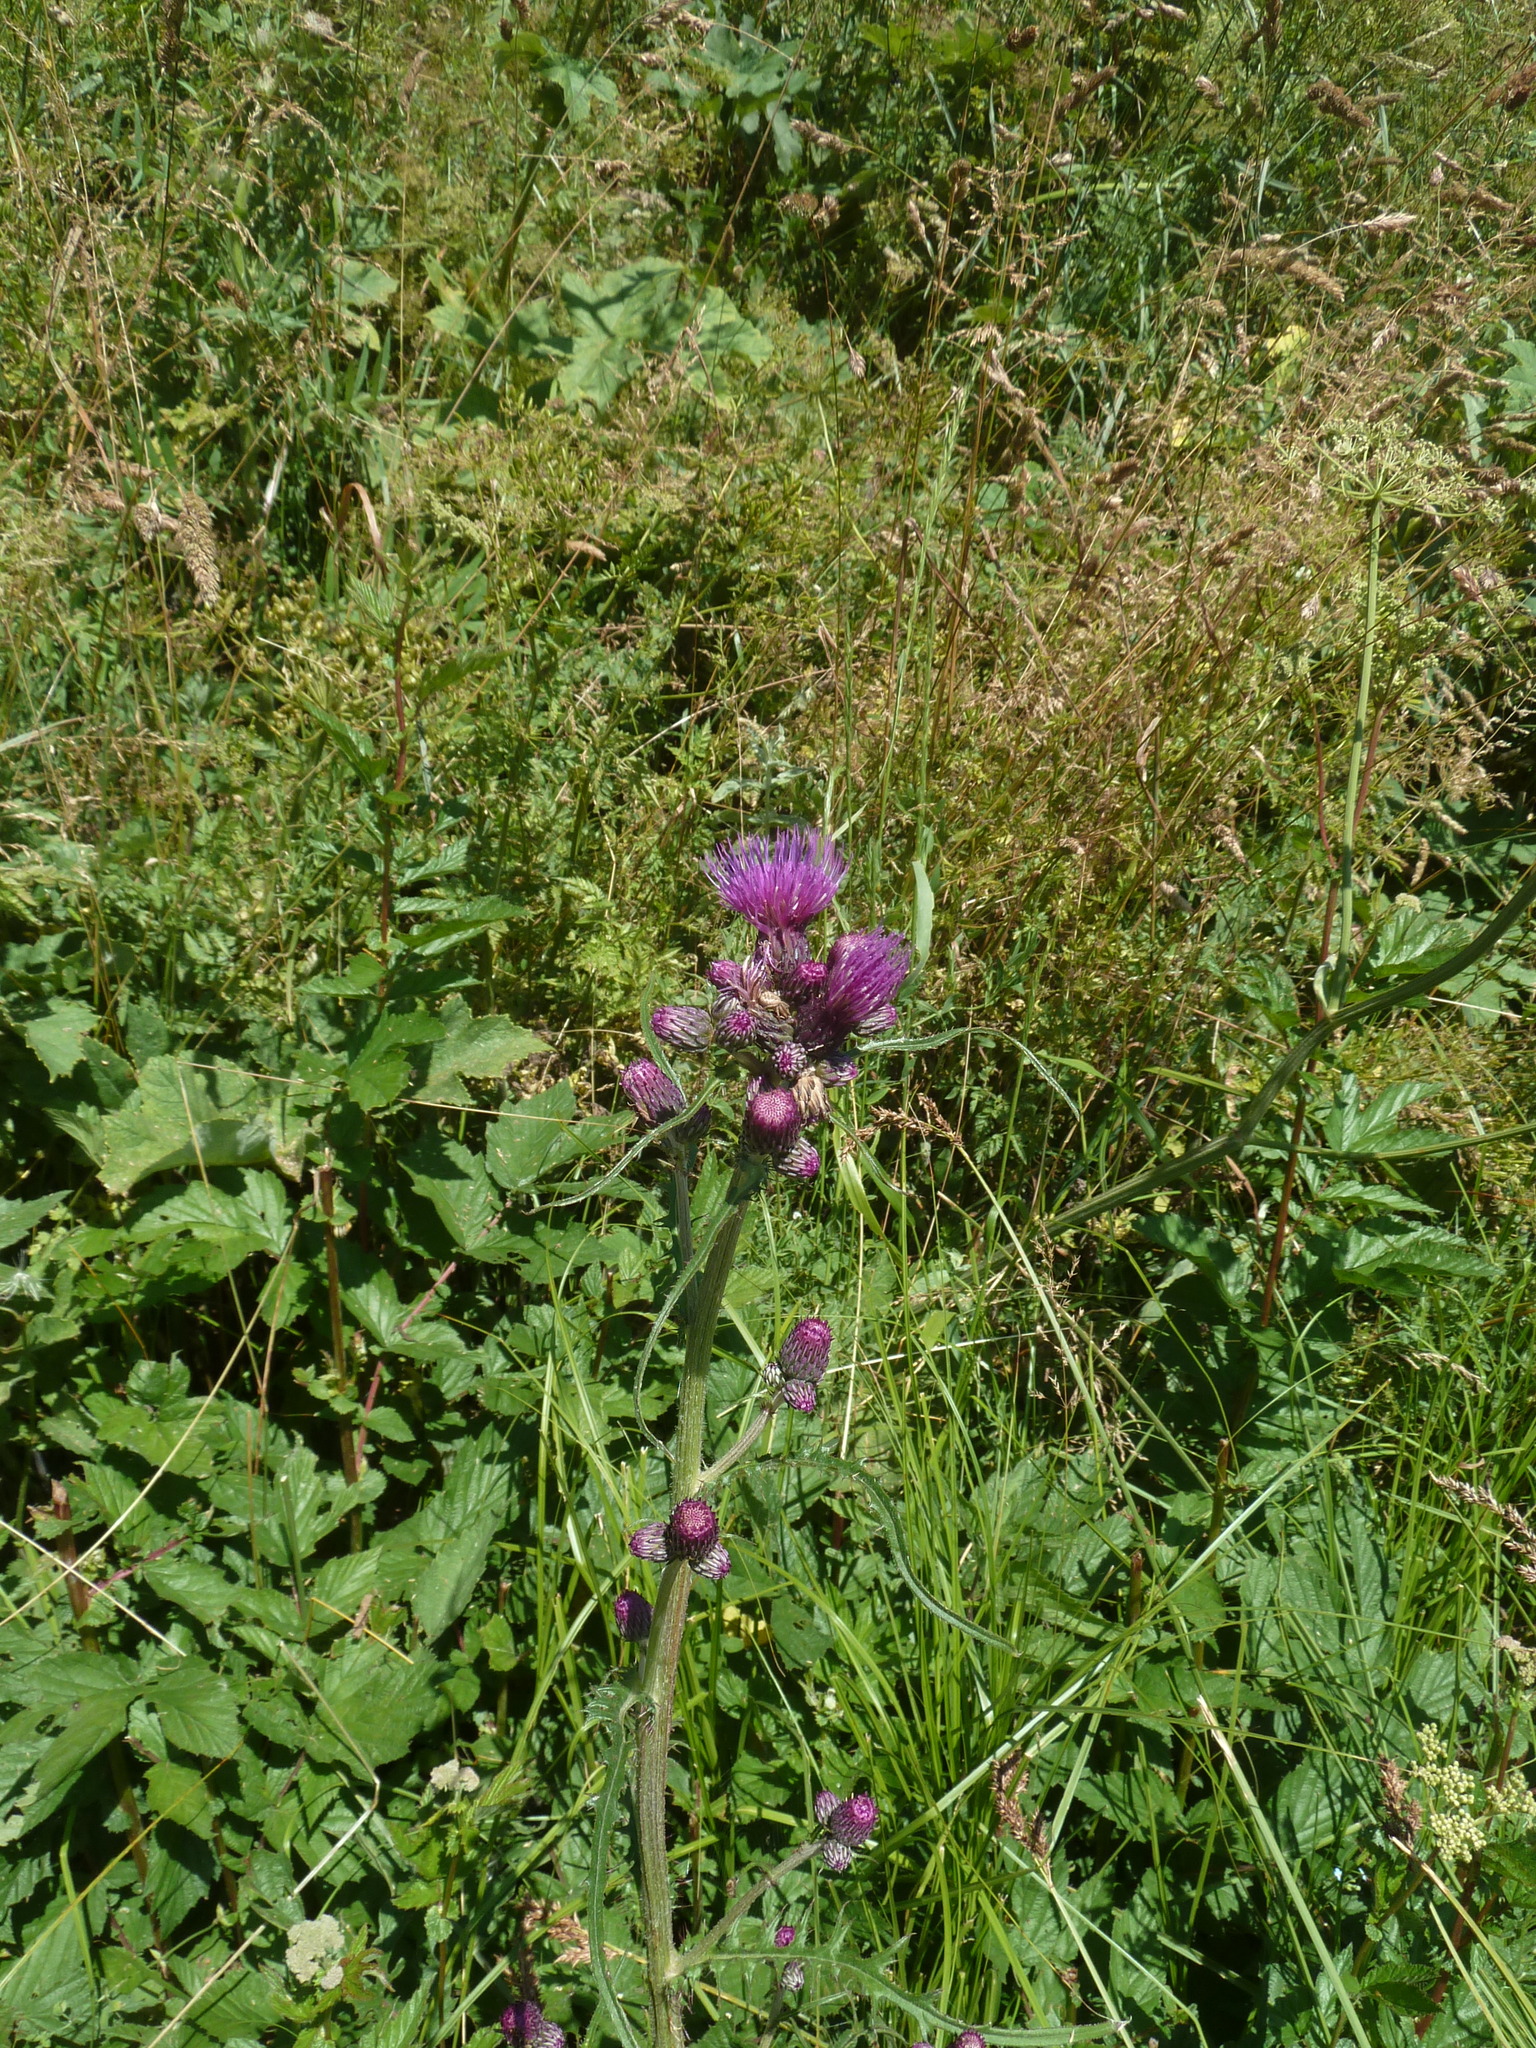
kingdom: Plantae
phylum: Tracheophyta
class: Magnoliopsida
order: Asterales
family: Asteraceae
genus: Cirsium
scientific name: Cirsium rivulare
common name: Brook thistle
